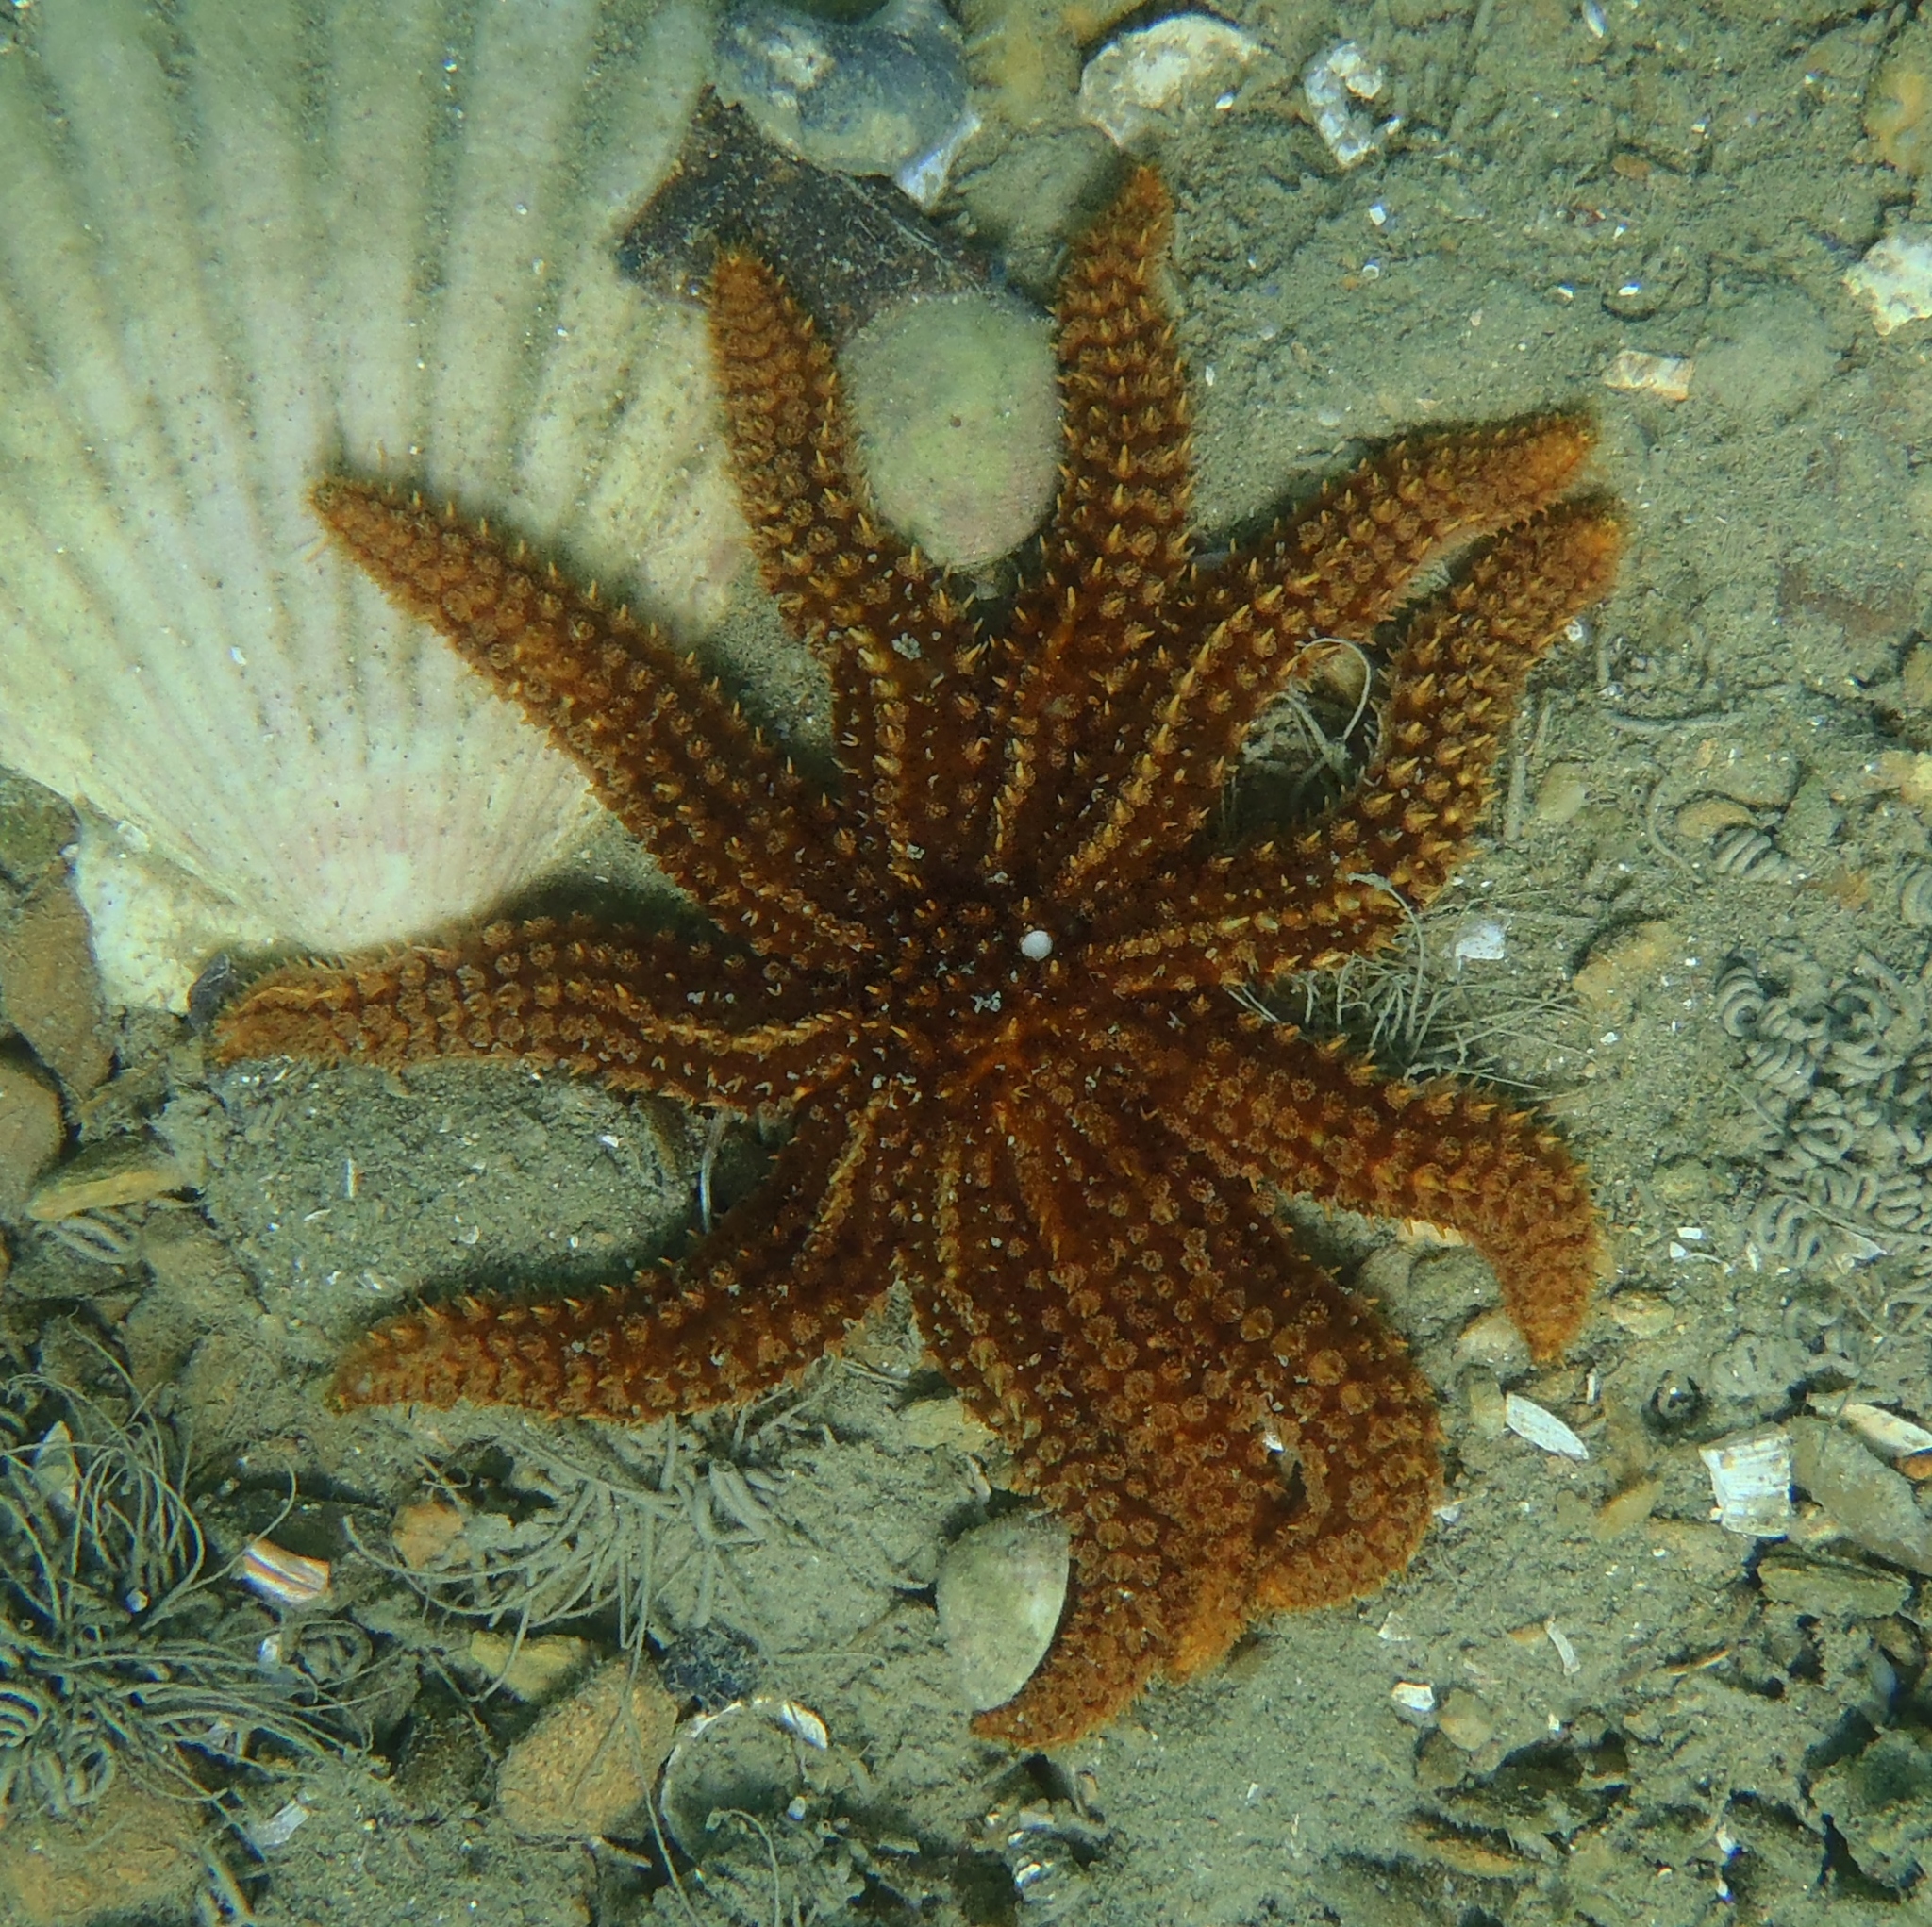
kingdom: Animalia
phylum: Echinodermata
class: Asteroidea
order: Forcipulatida
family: Asteriidae
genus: Coscinasterias
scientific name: Coscinasterias muricata
